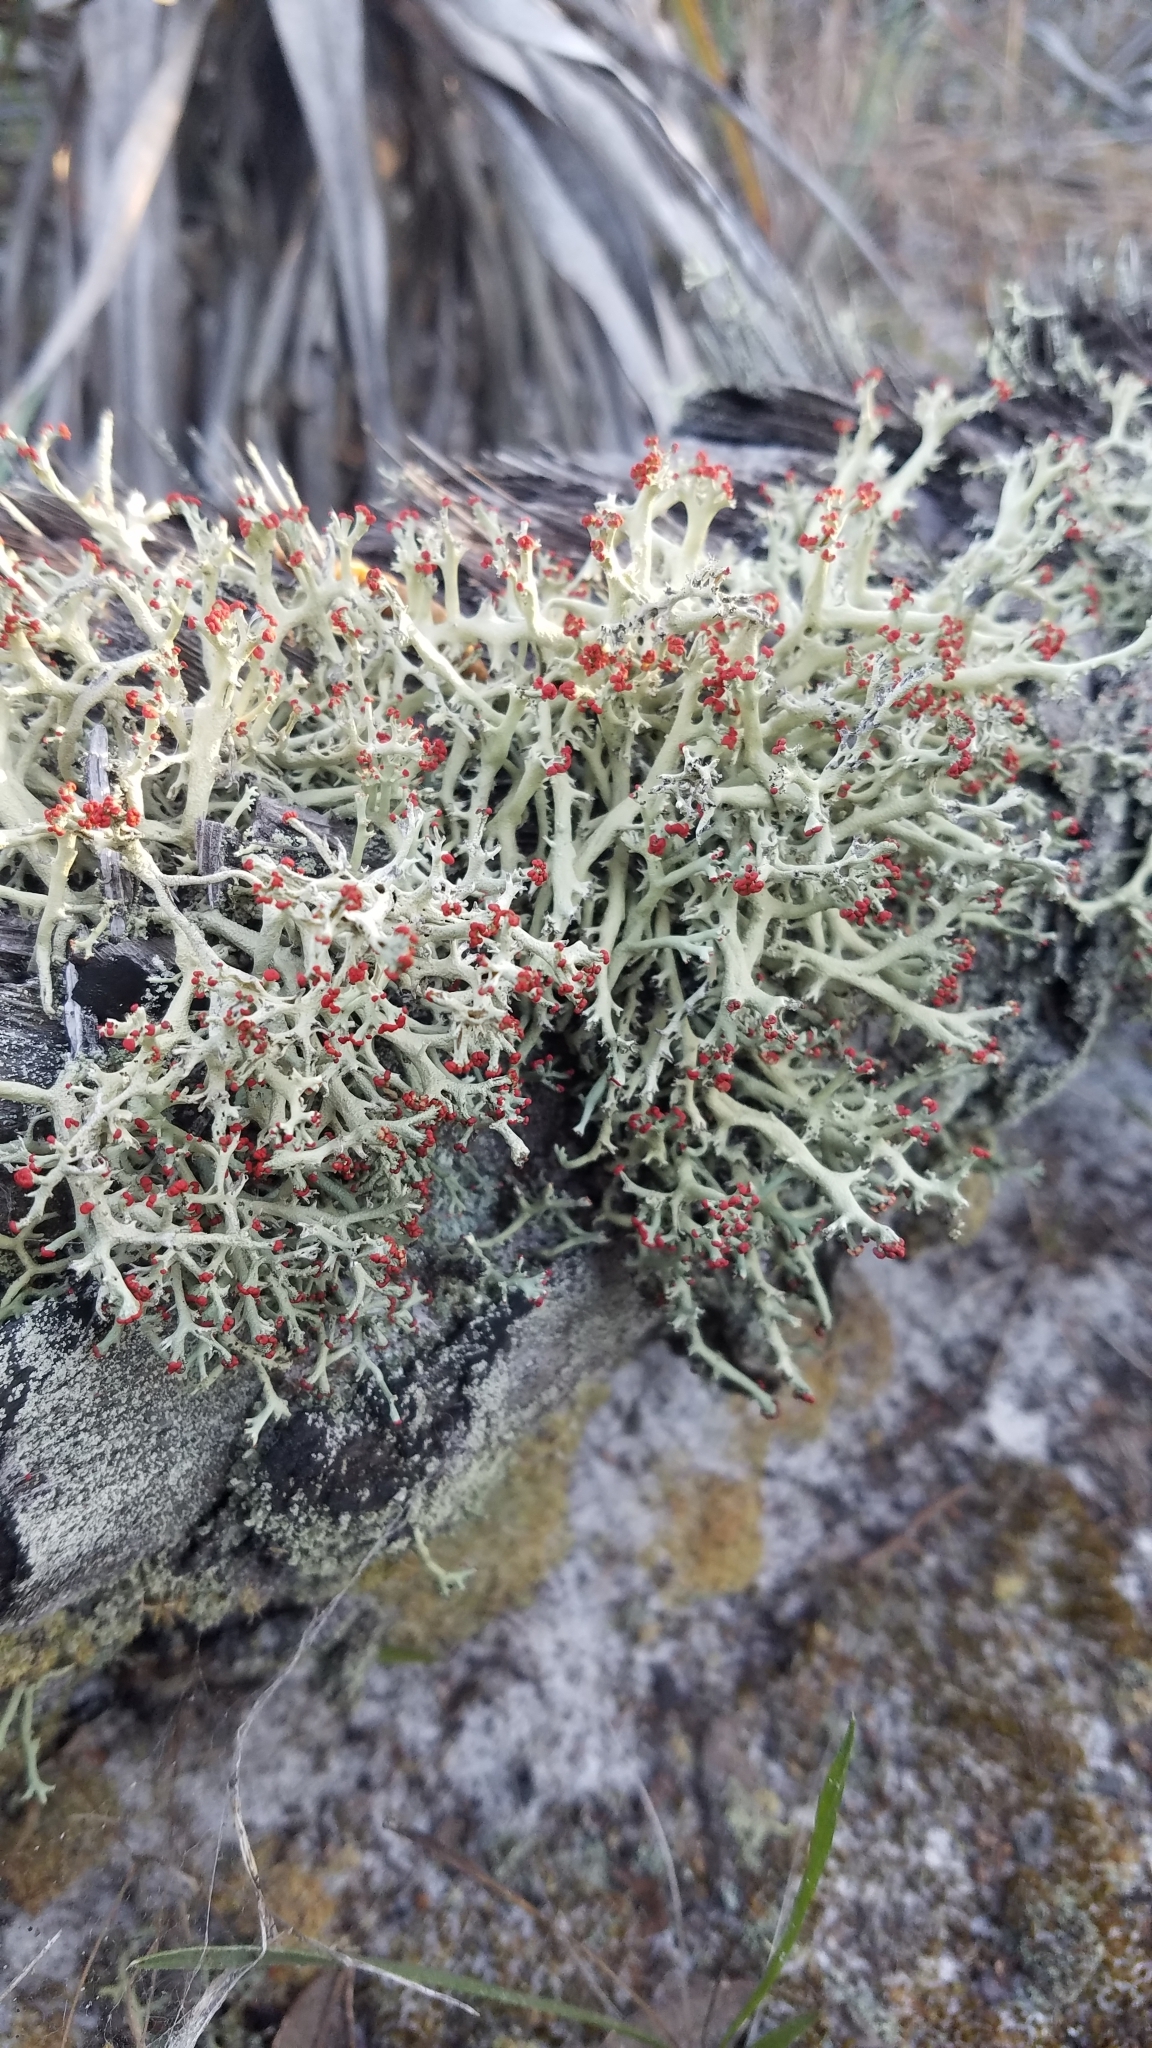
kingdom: Fungi
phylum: Ascomycota
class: Lecanoromycetes
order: Lecanorales
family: Cladoniaceae
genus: Cladonia
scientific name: Cladonia leporina
